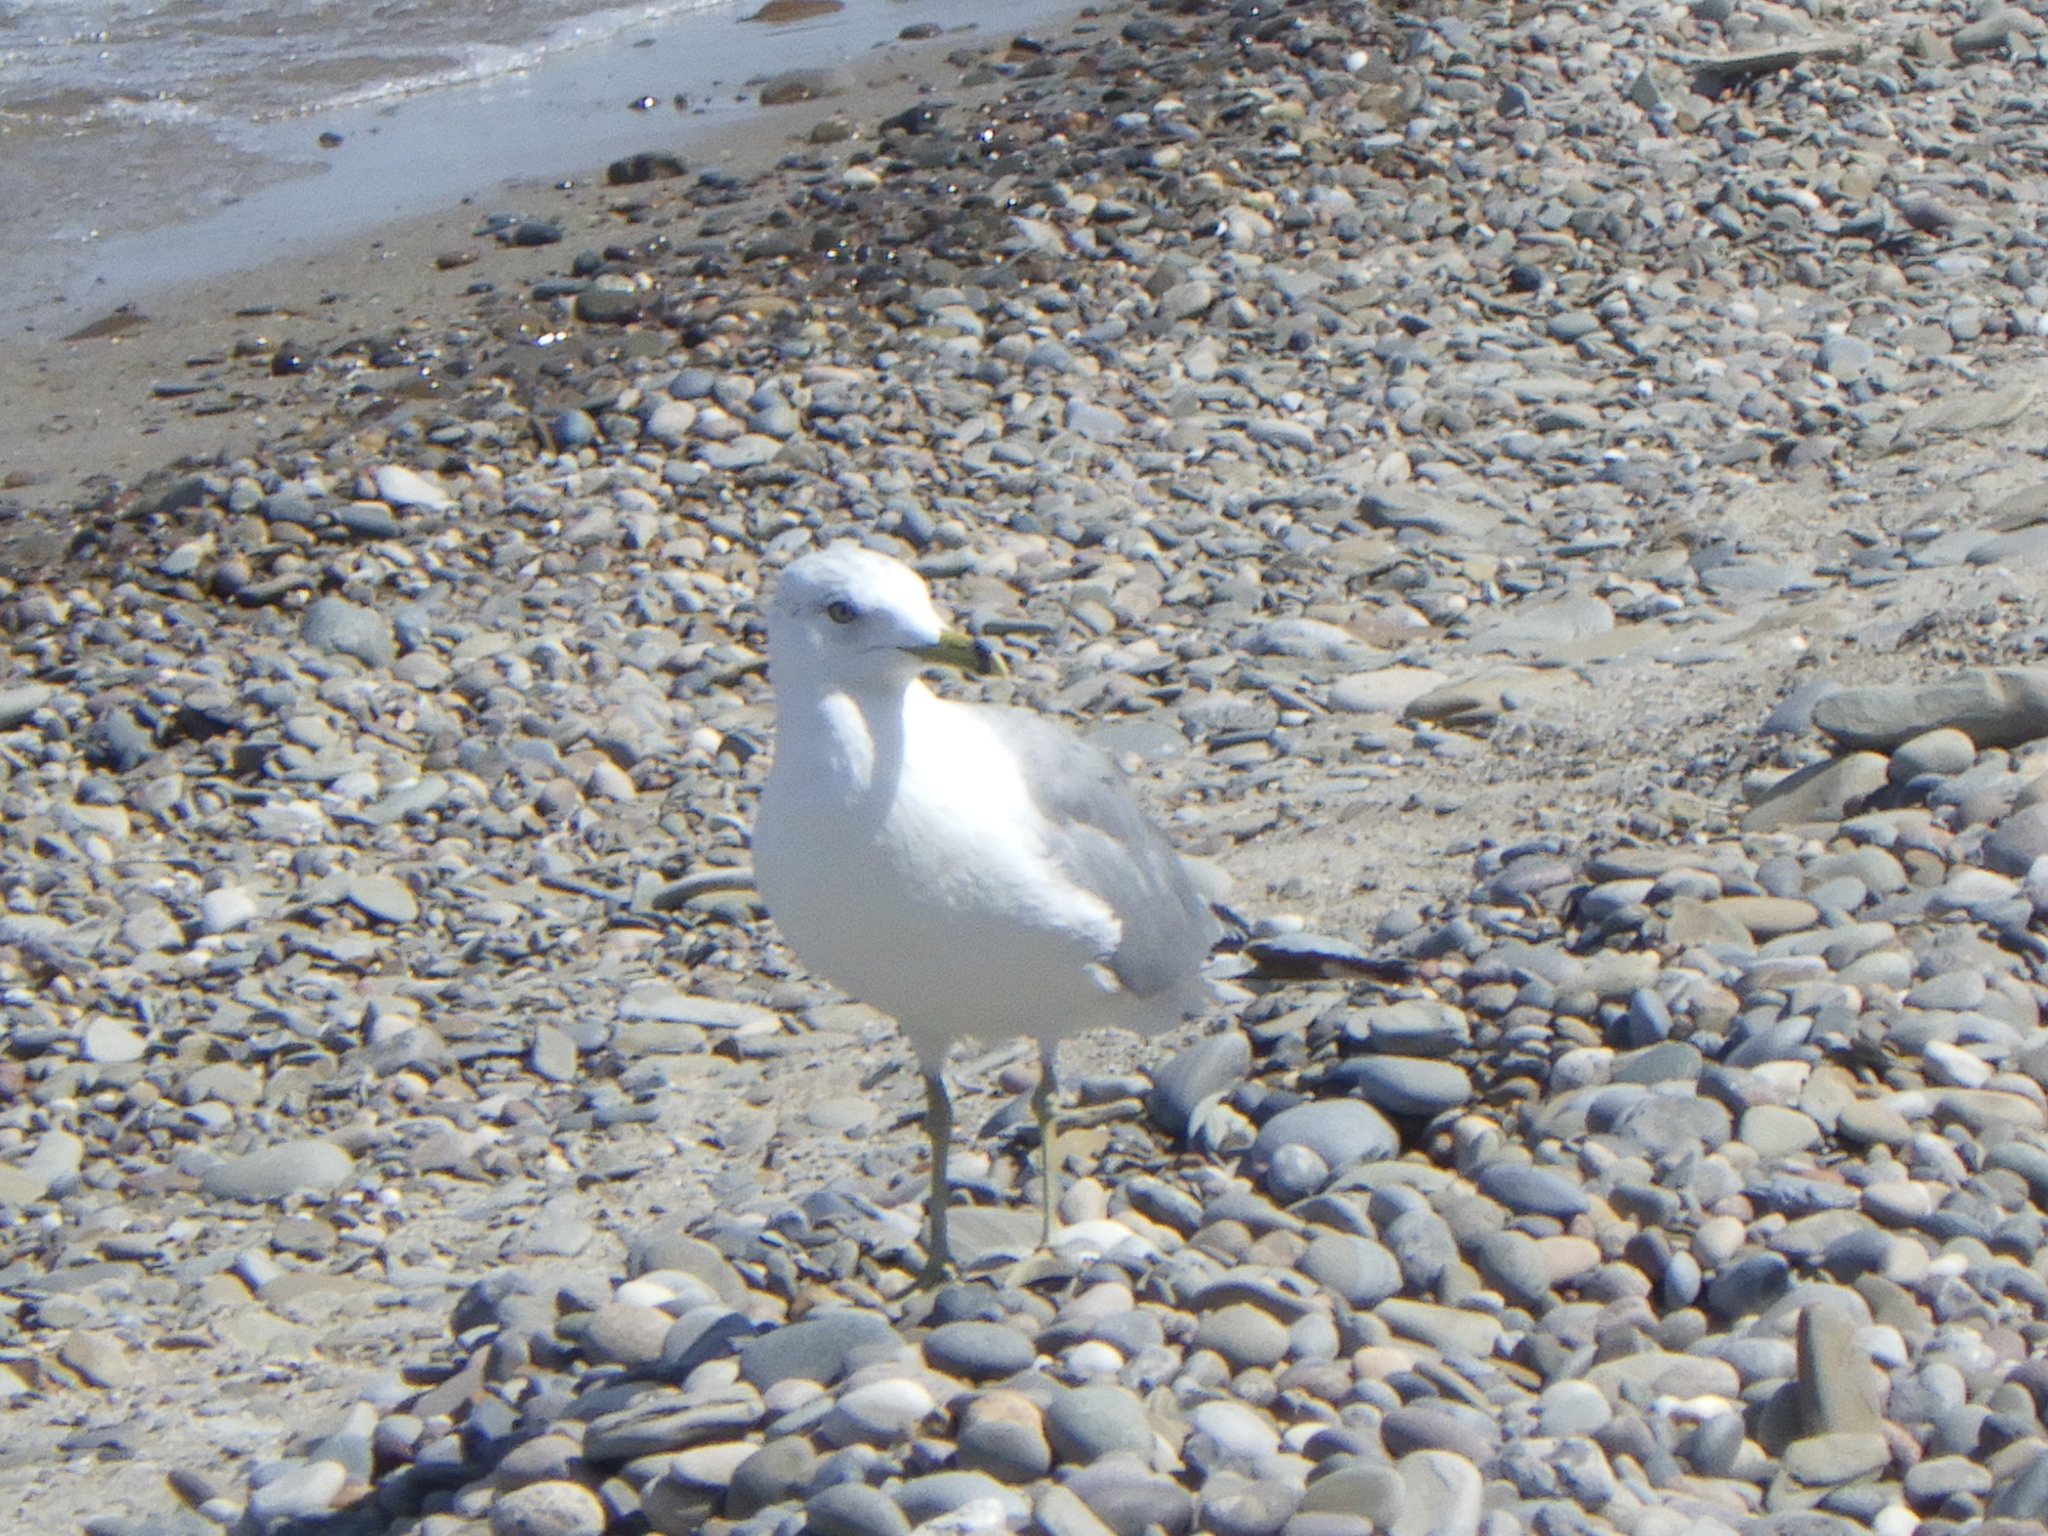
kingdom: Animalia
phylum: Chordata
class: Aves
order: Charadriiformes
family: Laridae
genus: Larus
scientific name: Larus delawarensis
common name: Ring-billed gull
